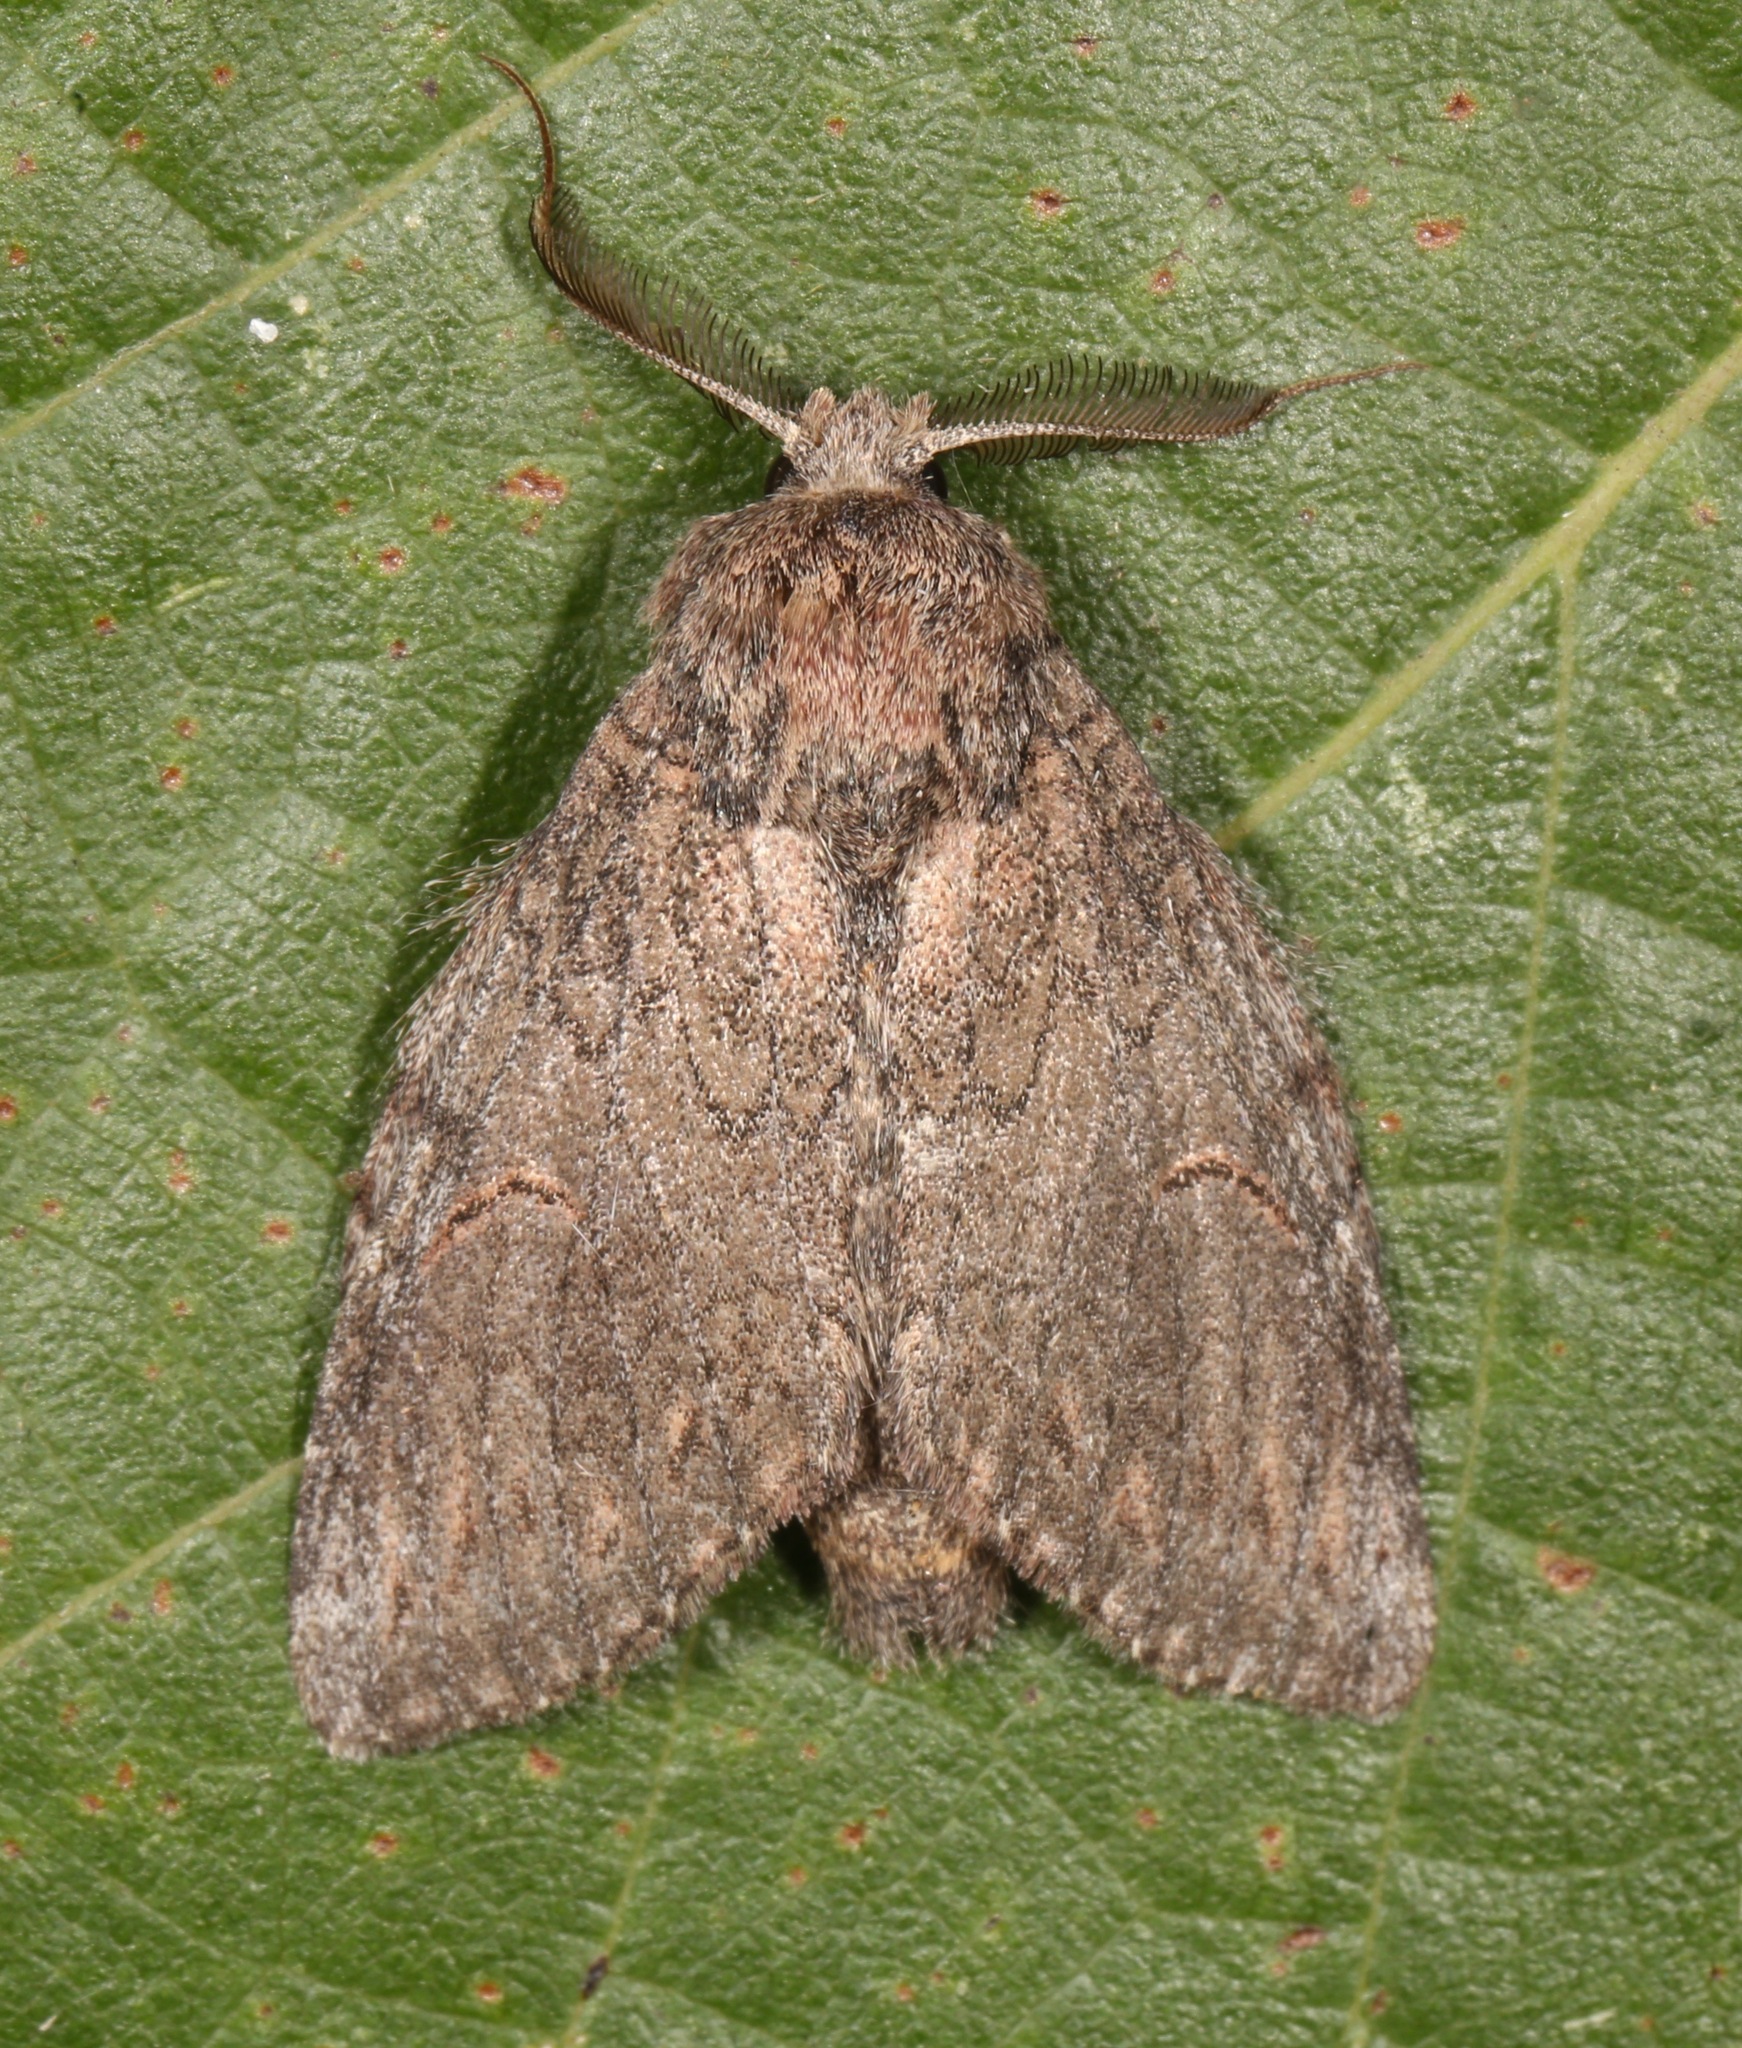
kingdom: Animalia
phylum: Arthropoda
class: Insecta
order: Lepidoptera
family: Notodontidae
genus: Disphragis
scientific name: Disphragis
